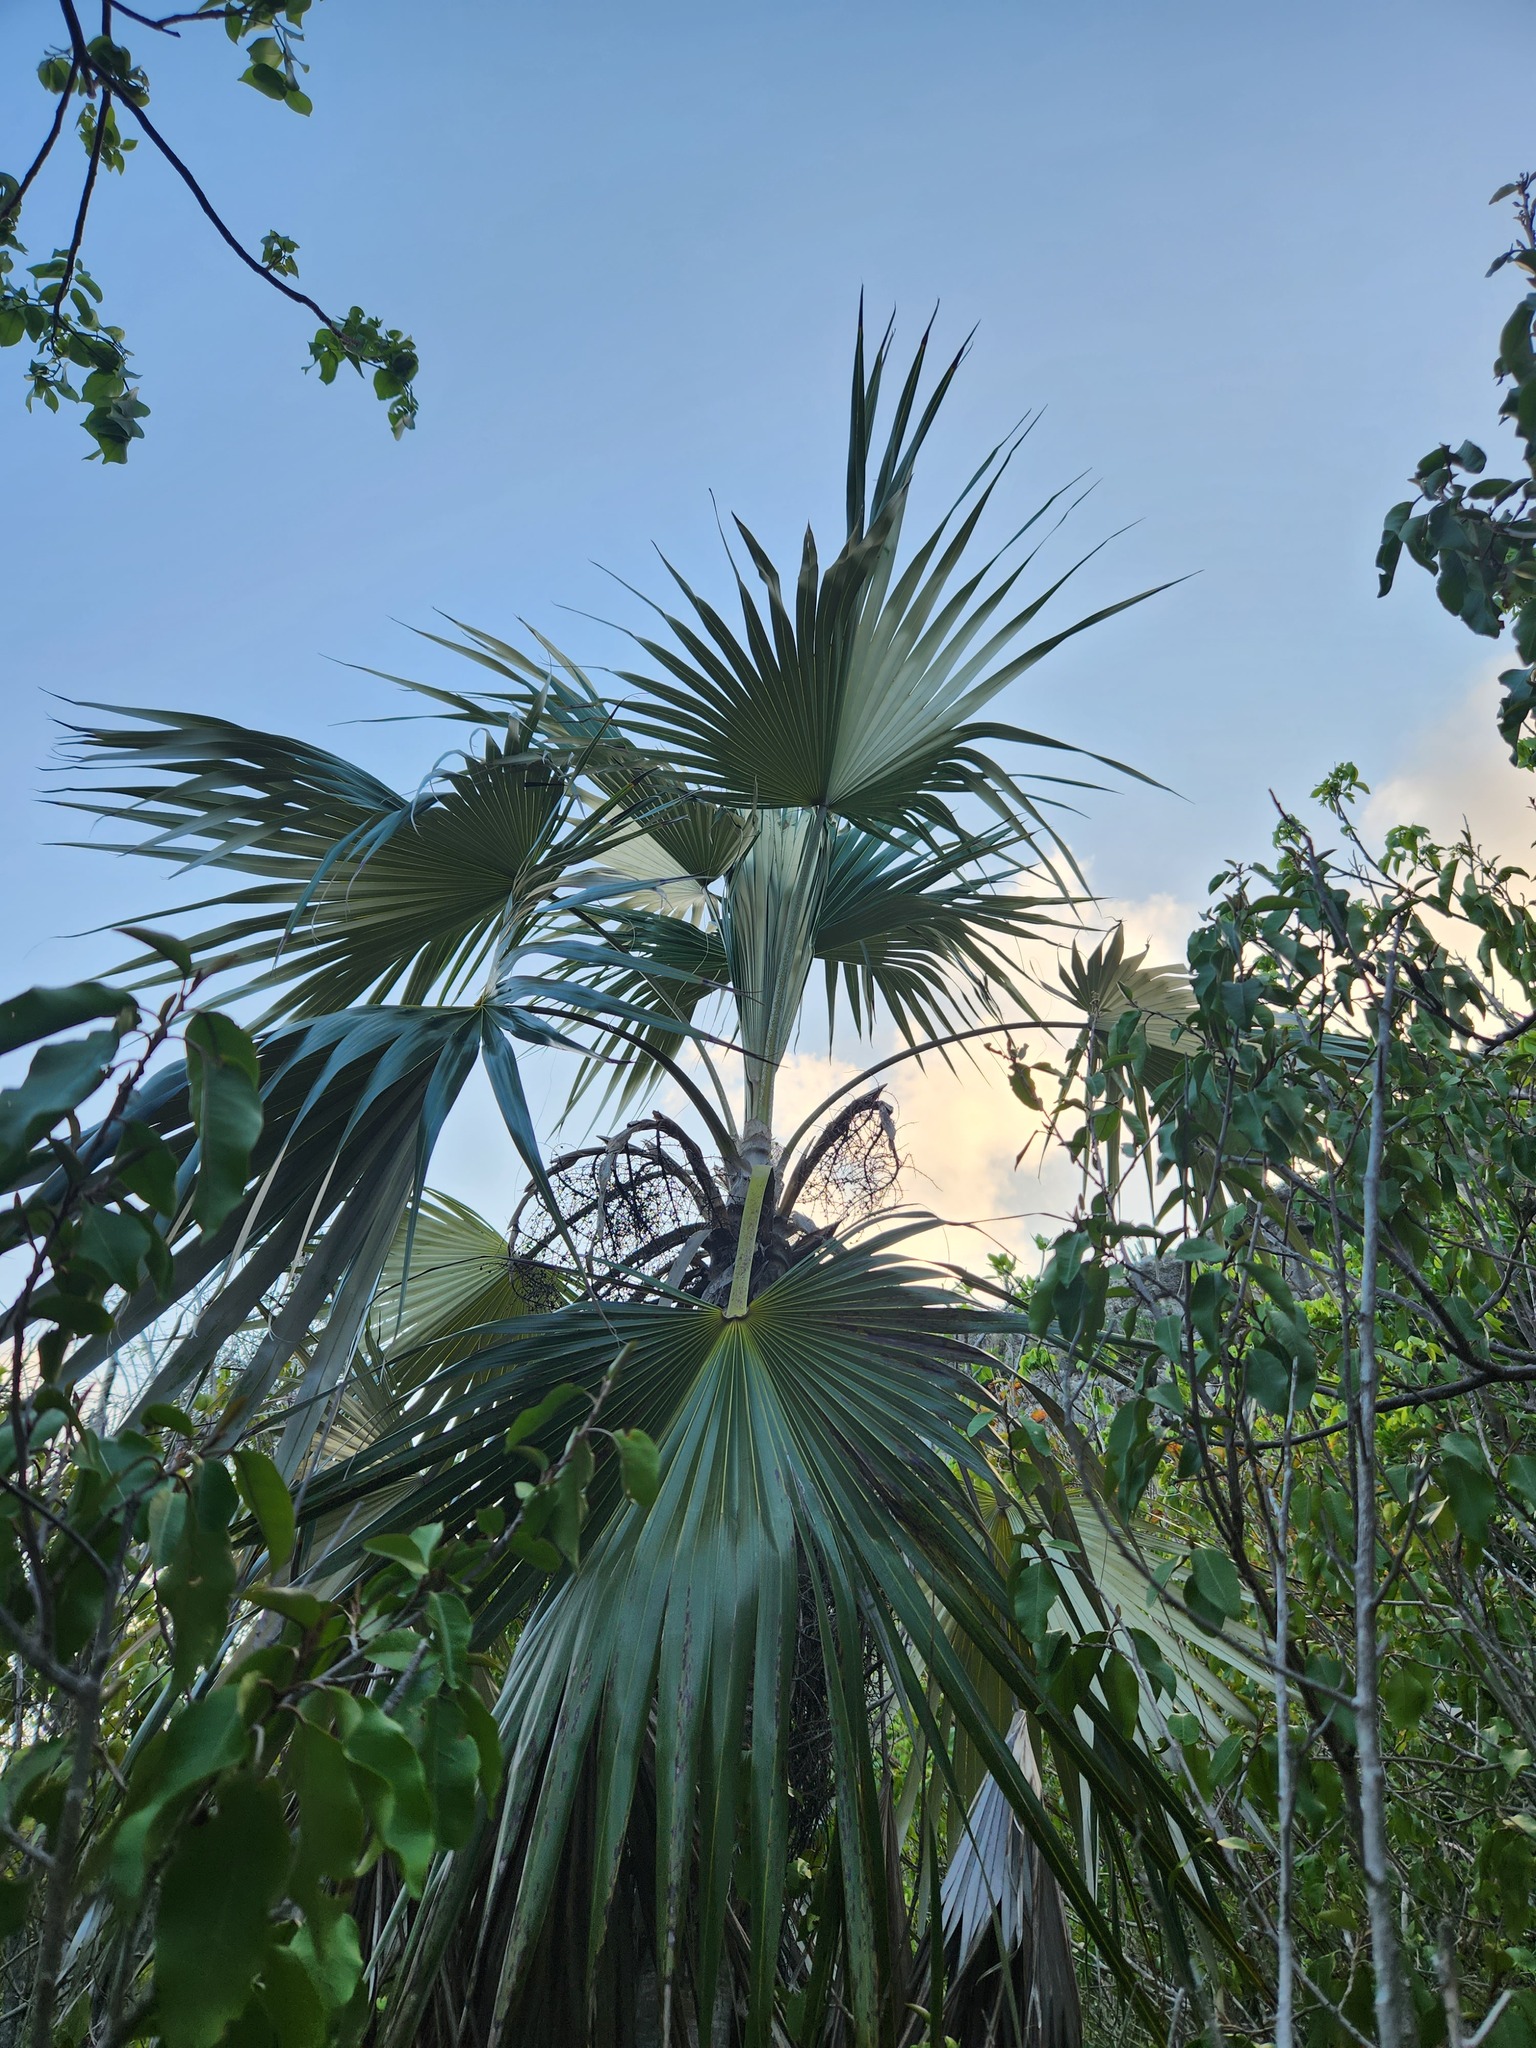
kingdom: Plantae
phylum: Tracheophyta
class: Liliopsida
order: Arecales
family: Arecaceae
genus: Coccothrinax
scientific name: Coccothrinax proctorii
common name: Silver palm
